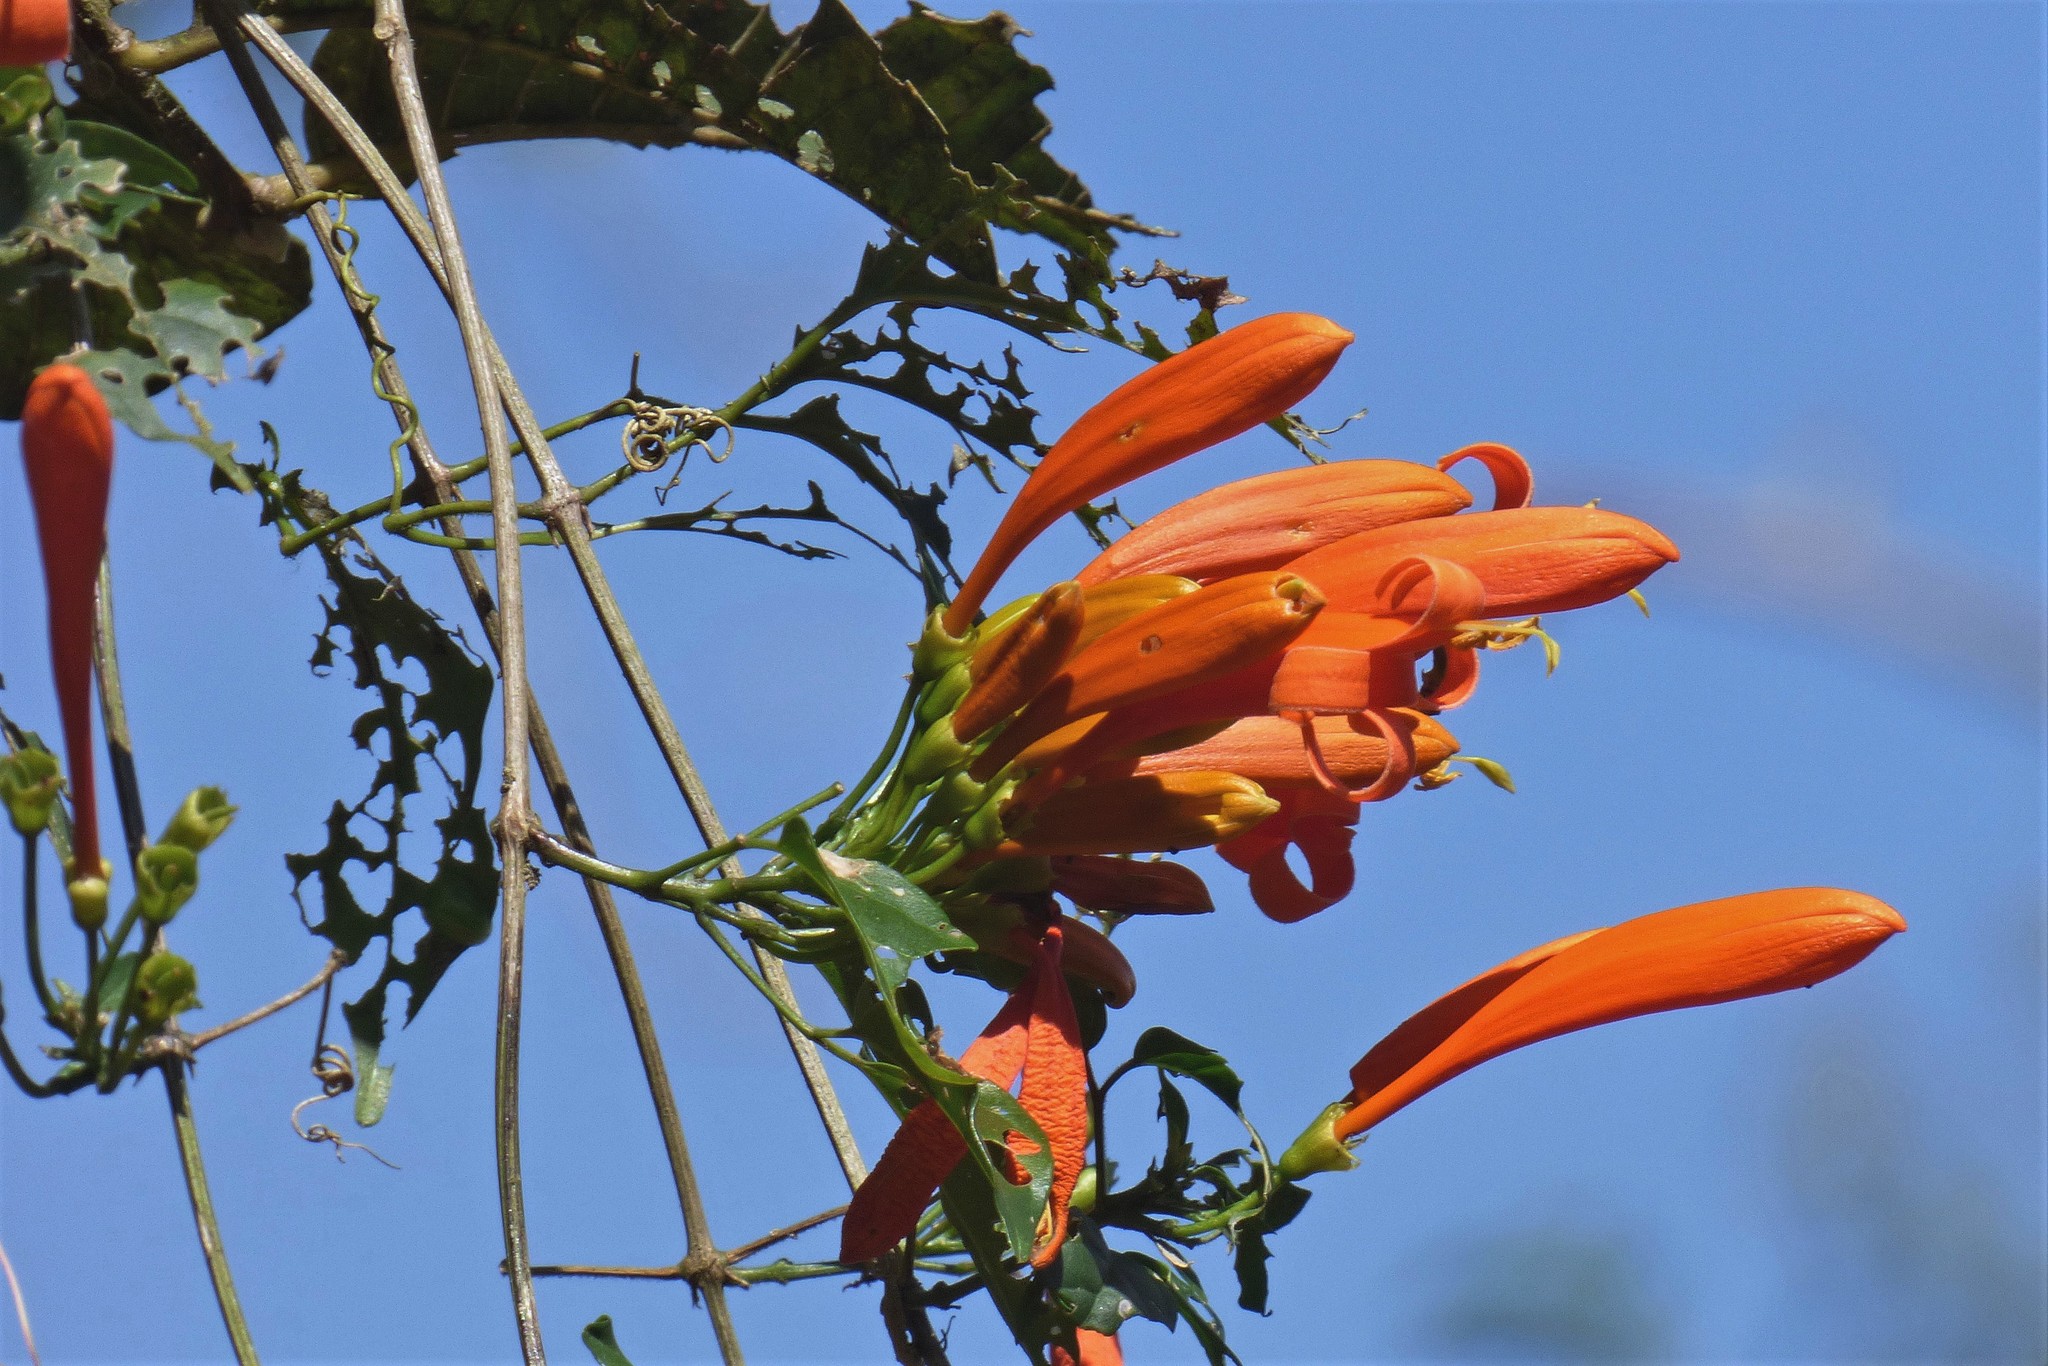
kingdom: Plantae
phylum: Tracheophyta
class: Magnoliopsida
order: Lamiales
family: Bignoniaceae
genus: Pyrostegia
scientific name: Pyrostegia venusta
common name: Flamevine
